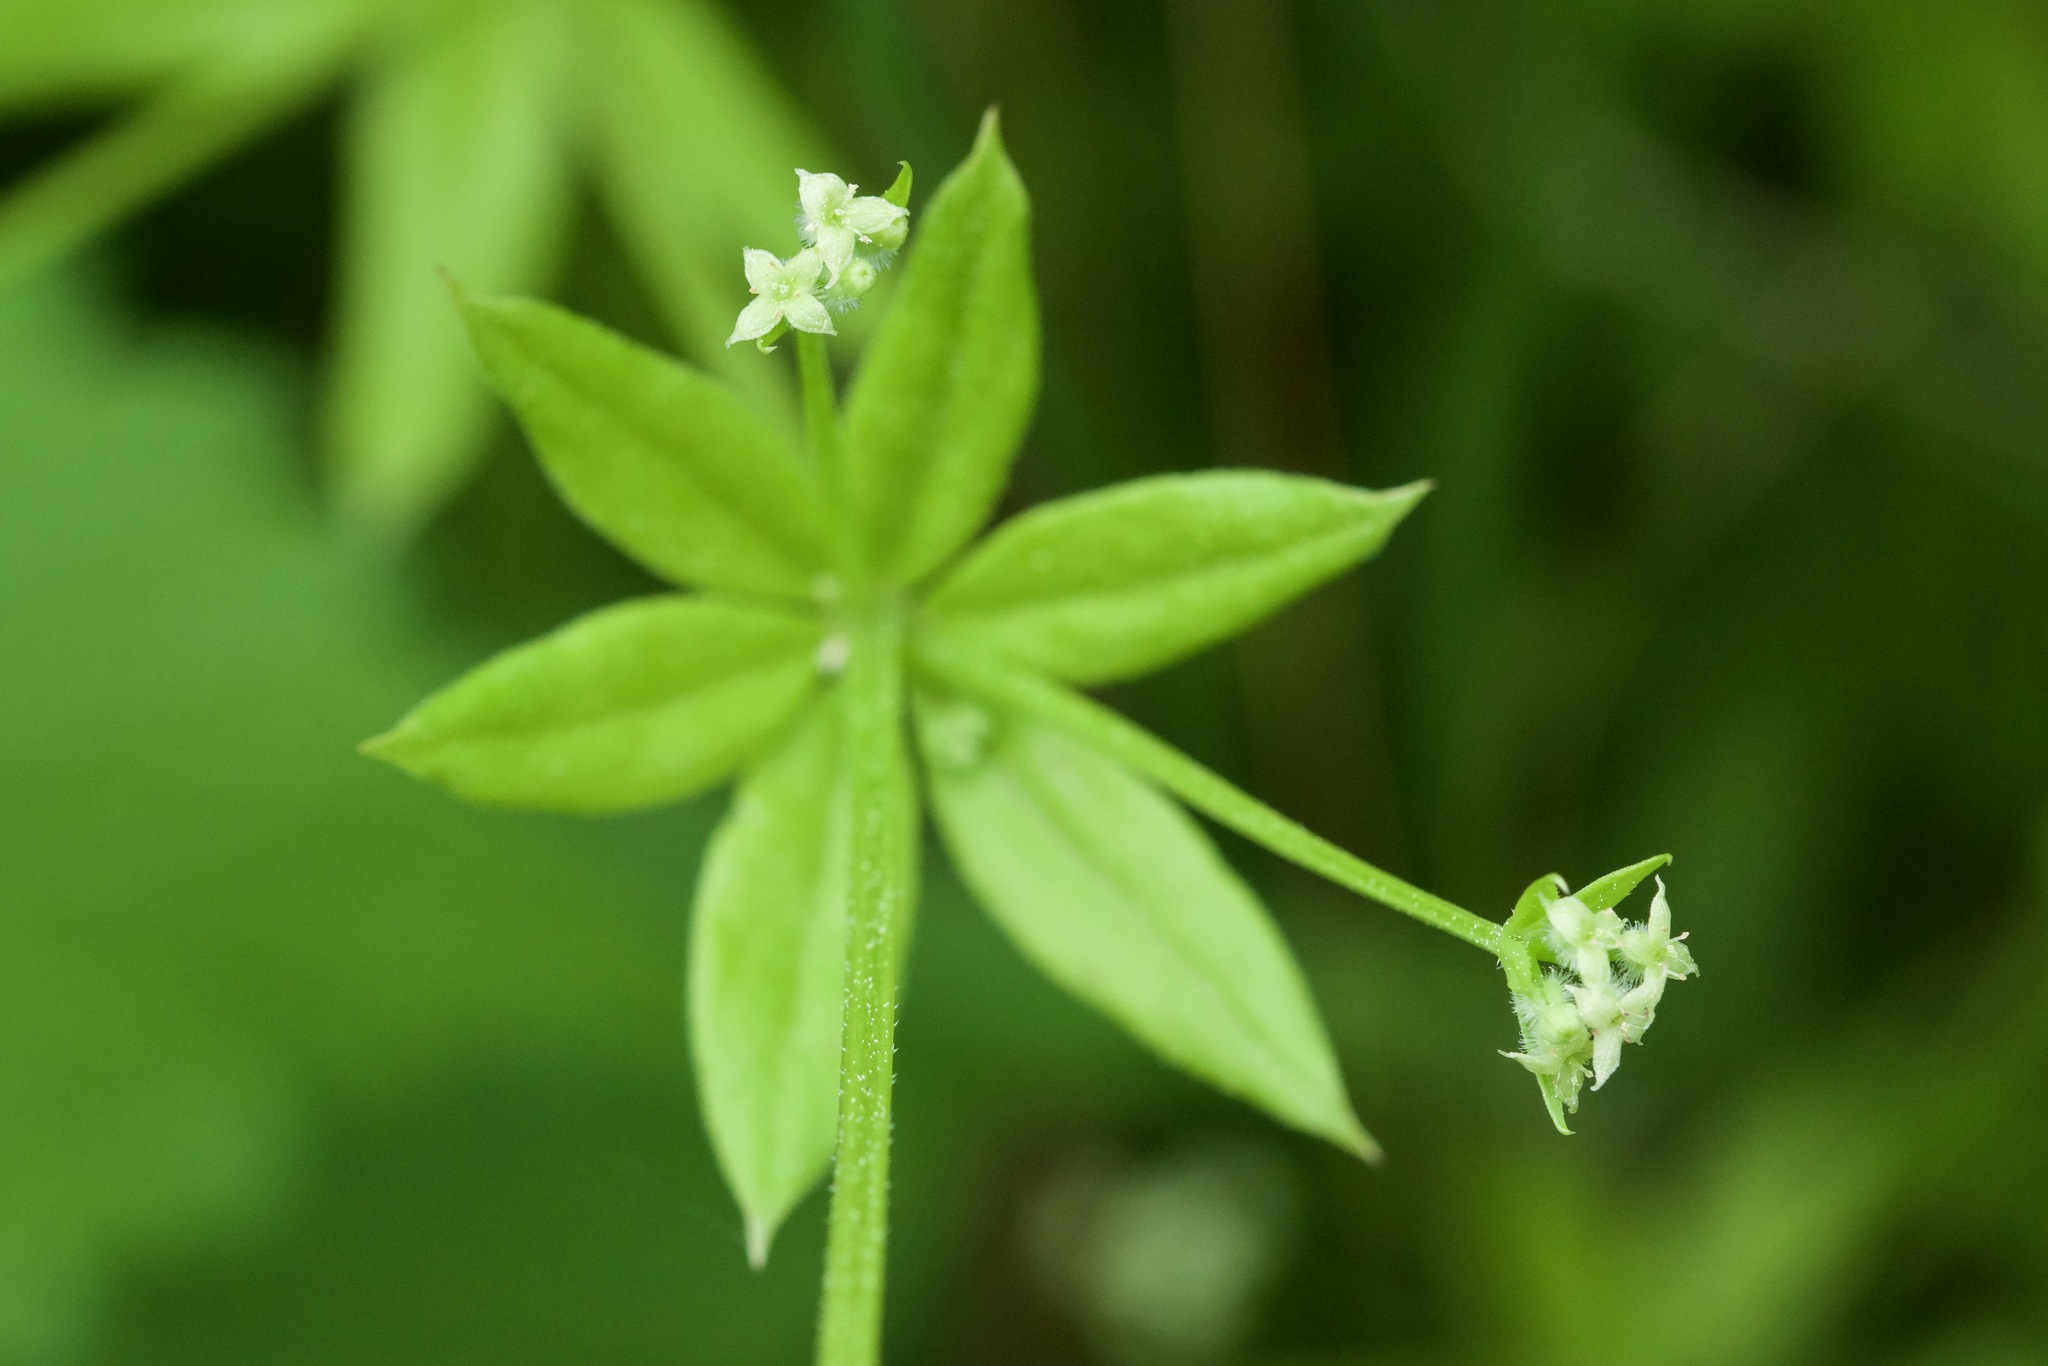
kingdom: Plantae
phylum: Tracheophyta
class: Magnoliopsida
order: Gentianales
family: Rubiaceae
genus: Galium
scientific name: Galium triflorum
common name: Fragrant bedstraw
